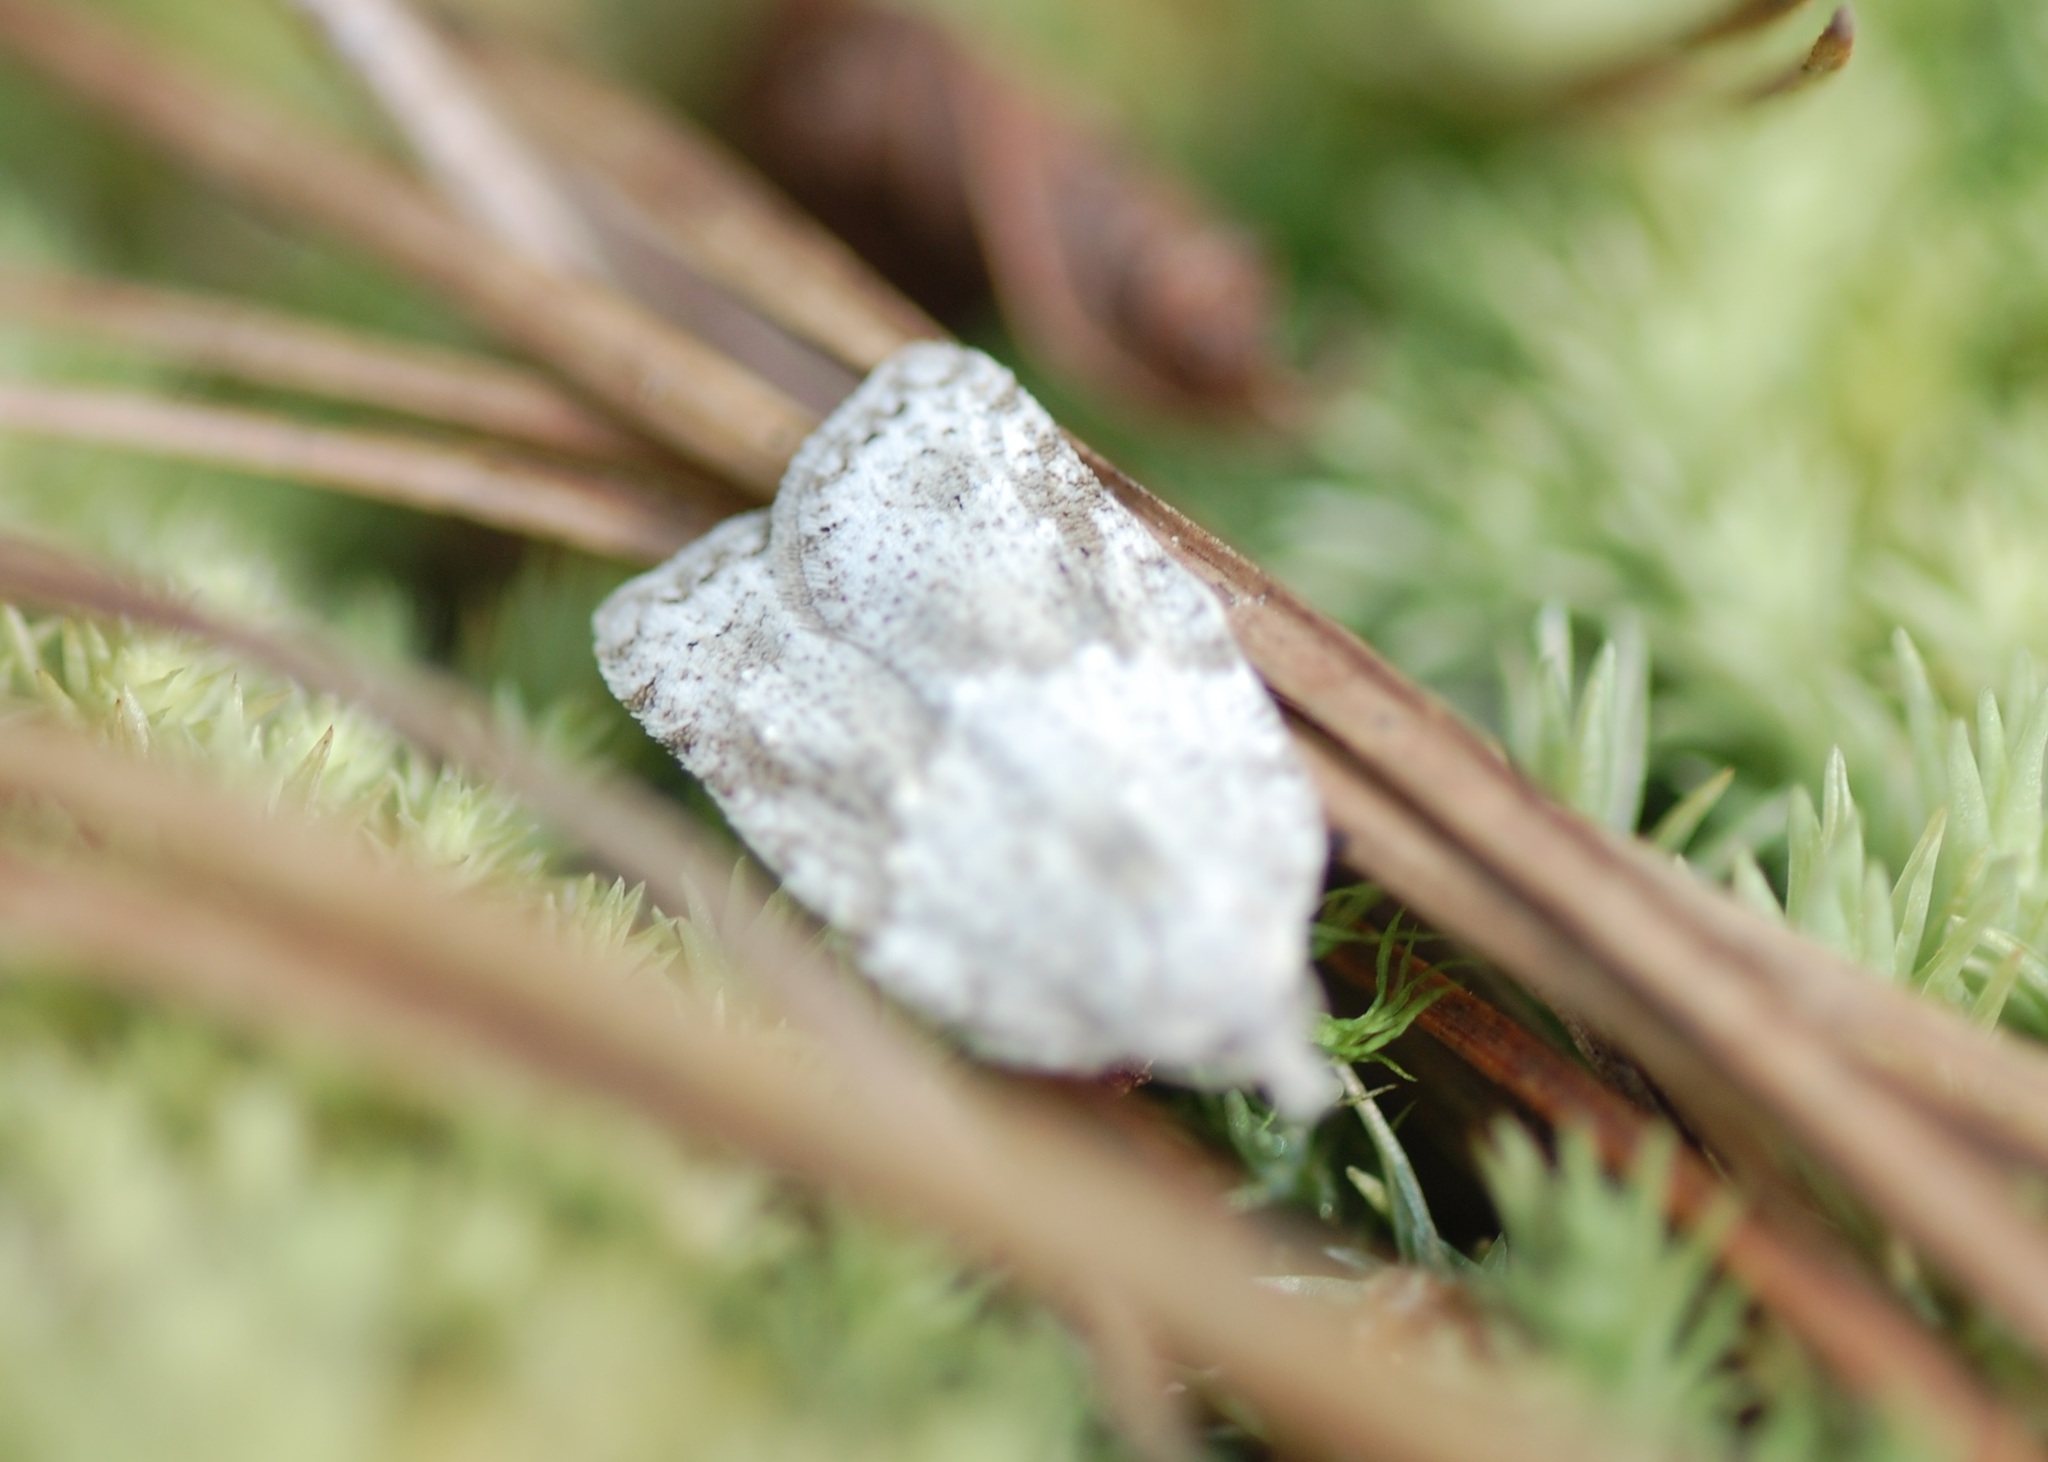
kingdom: Animalia
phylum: Arthropoda
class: Insecta
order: Lepidoptera
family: Tortricidae
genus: Acleris
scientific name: Acleris placidana
